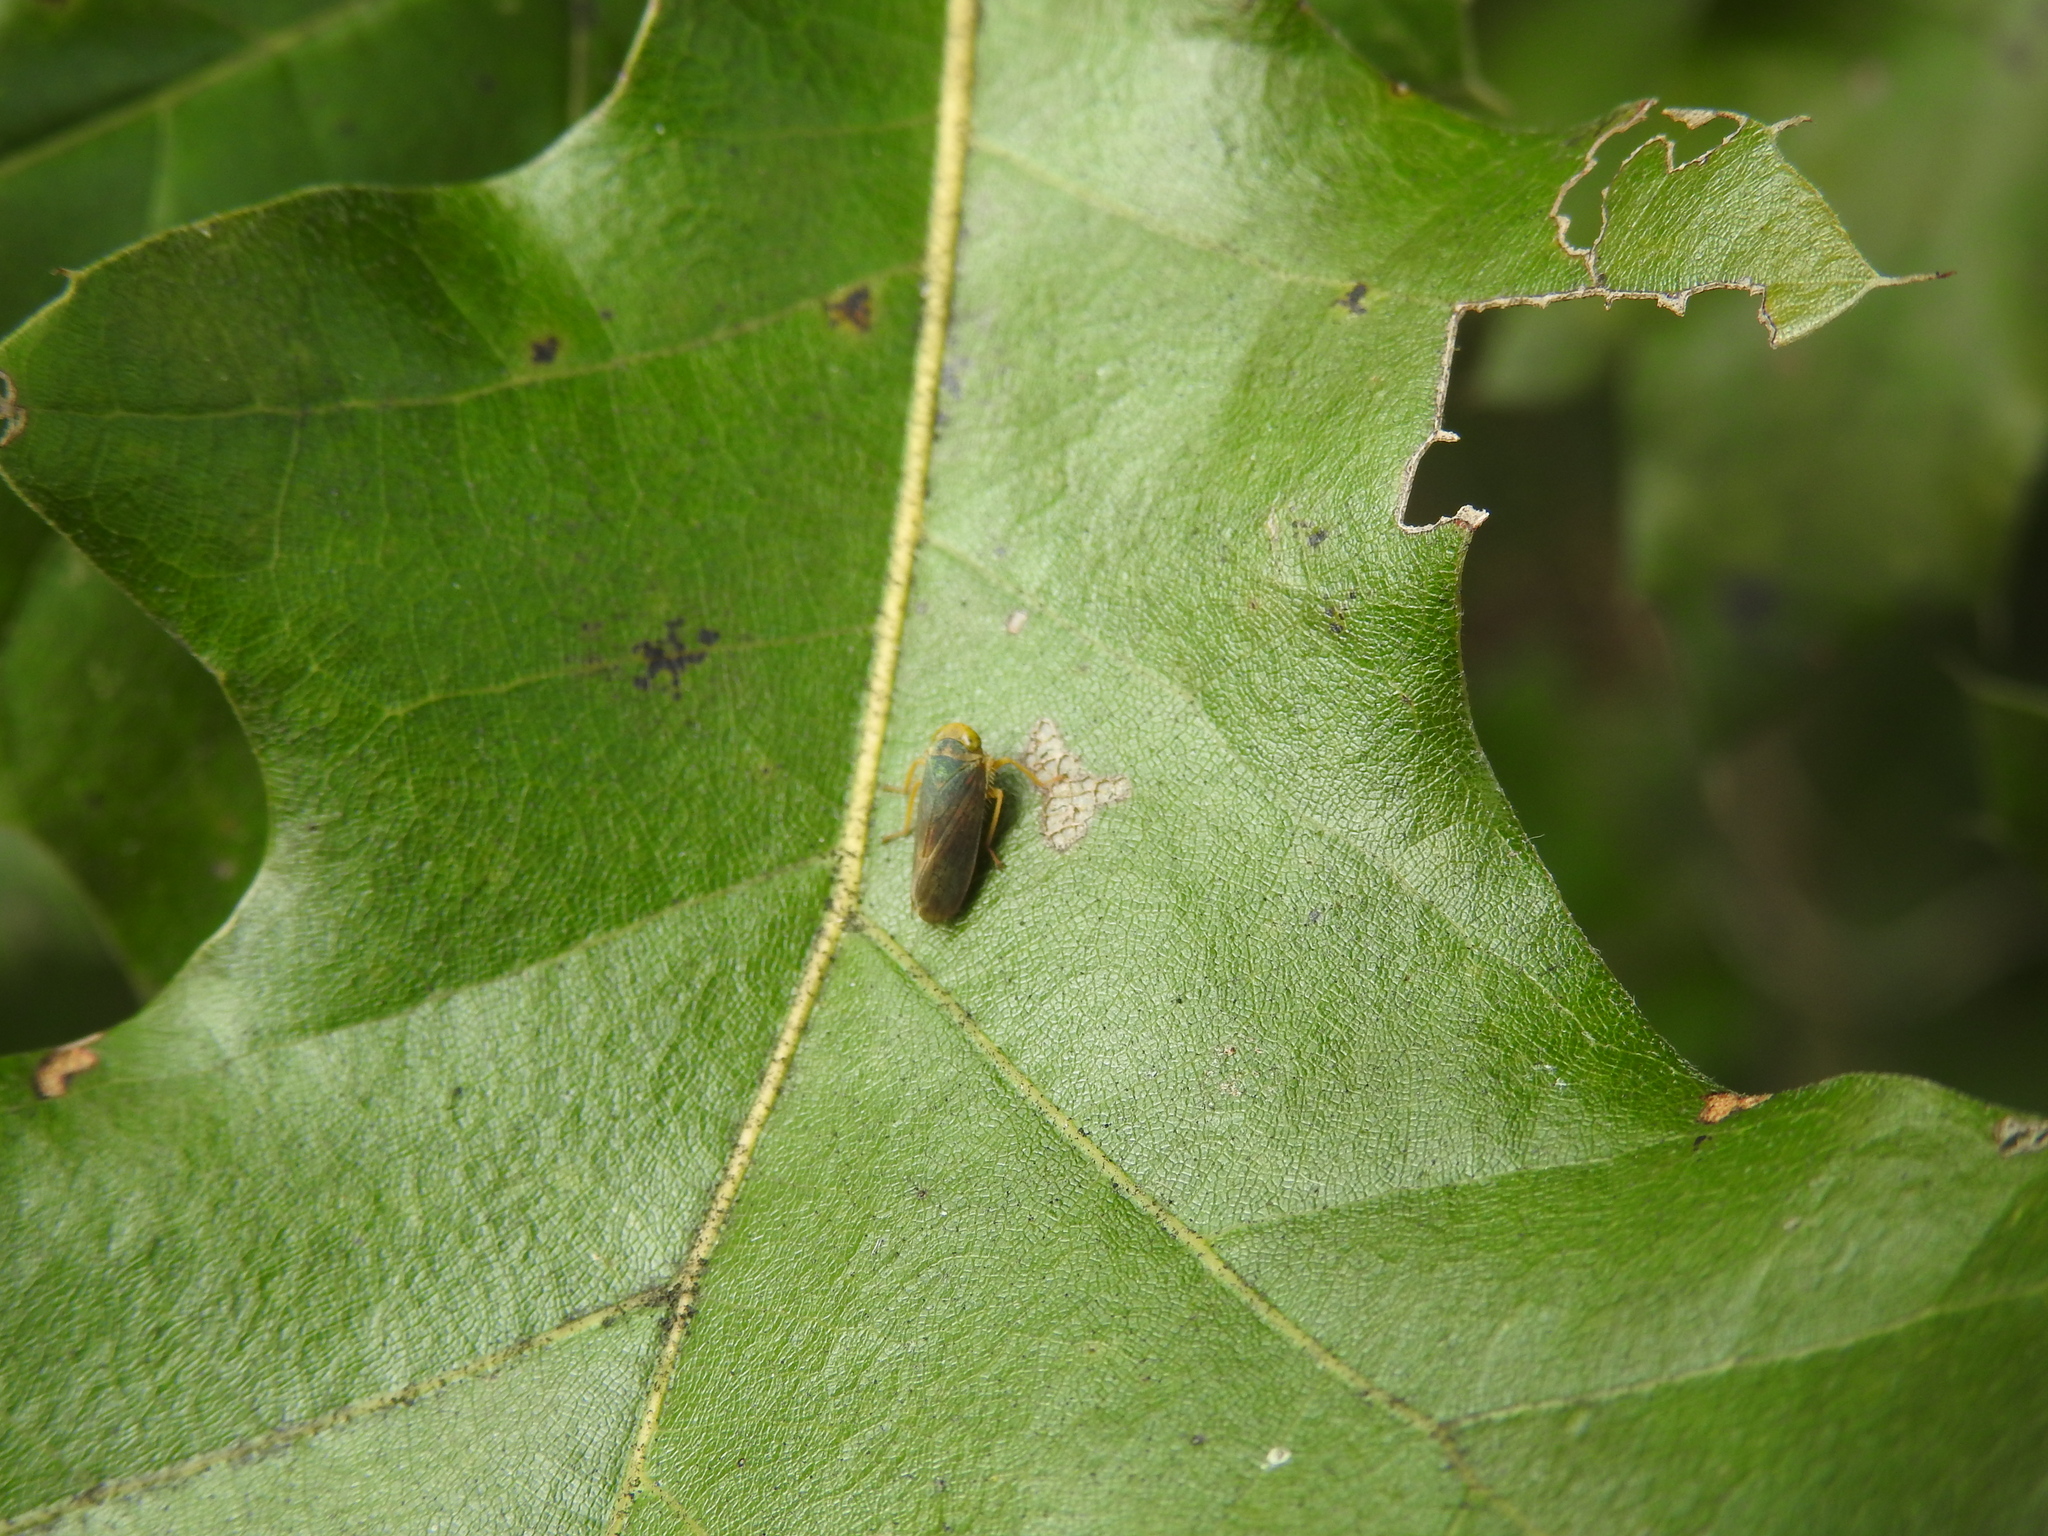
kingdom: Animalia
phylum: Arthropoda
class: Insecta
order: Hemiptera
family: Cicadellidae
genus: Jikradia
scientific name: Jikradia olitoria
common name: Coppery leafhopper
